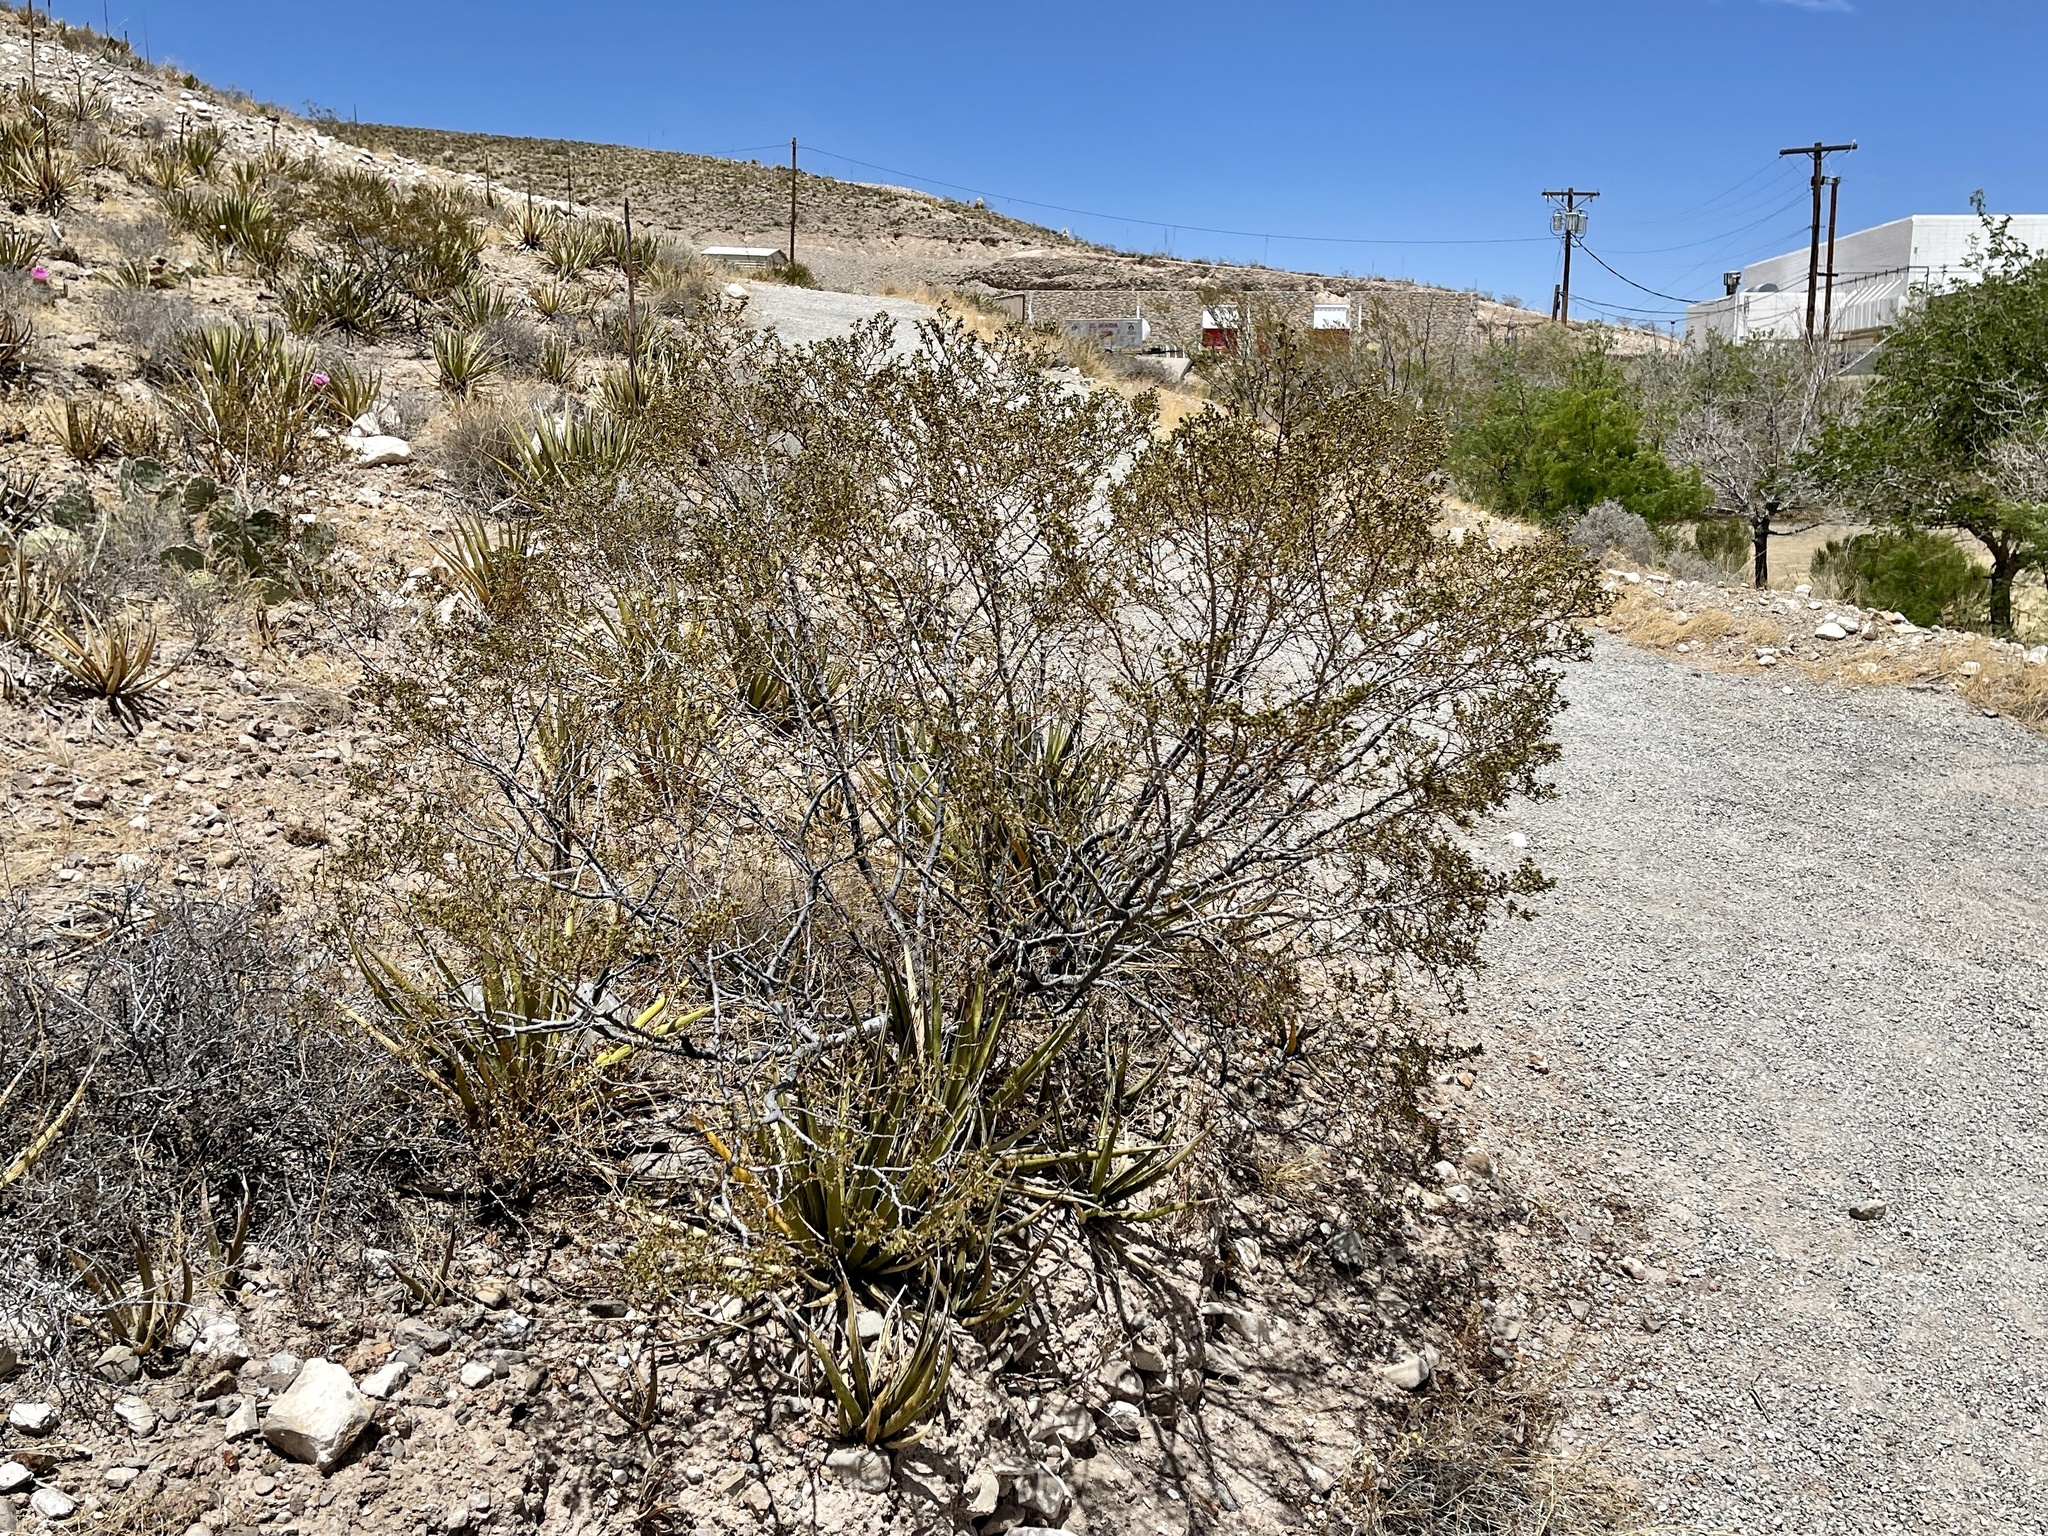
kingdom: Plantae
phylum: Tracheophyta
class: Magnoliopsida
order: Zygophyllales
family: Zygophyllaceae
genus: Larrea
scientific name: Larrea tridentata
